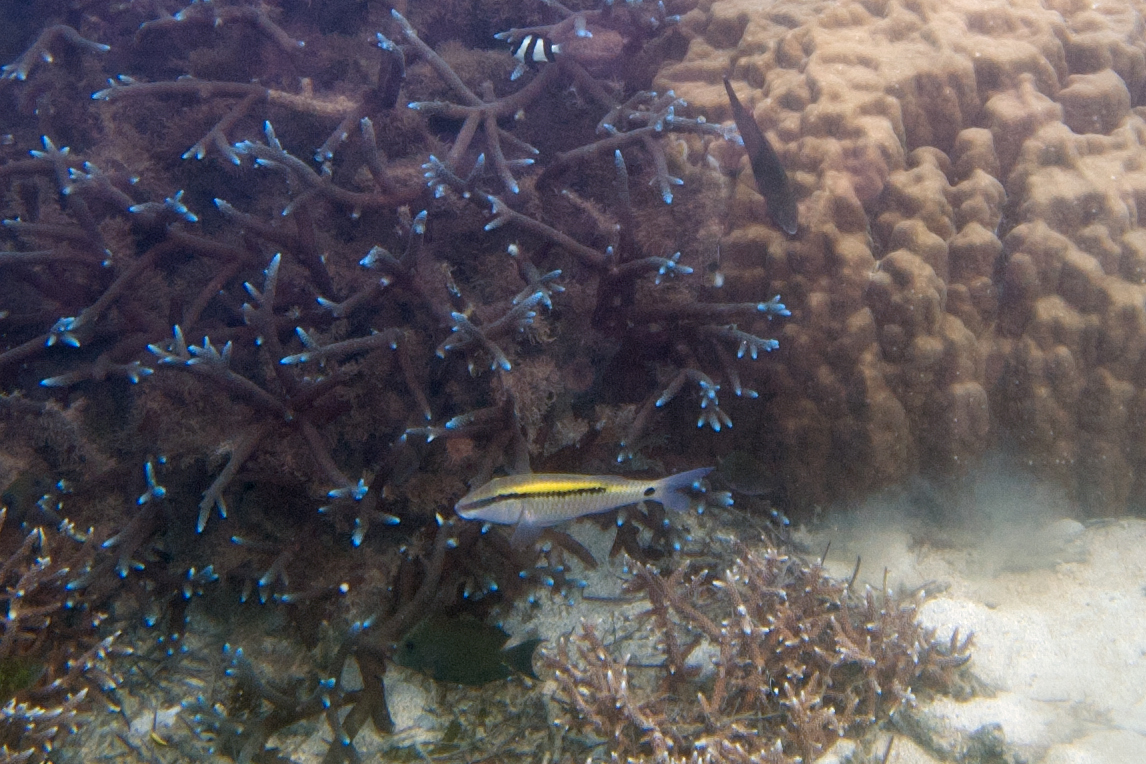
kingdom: Animalia
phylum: Chordata
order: Perciformes
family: Mullidae
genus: Parupeneus
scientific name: Parupeneus barberinus
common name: Dash-and-dot goatfish
